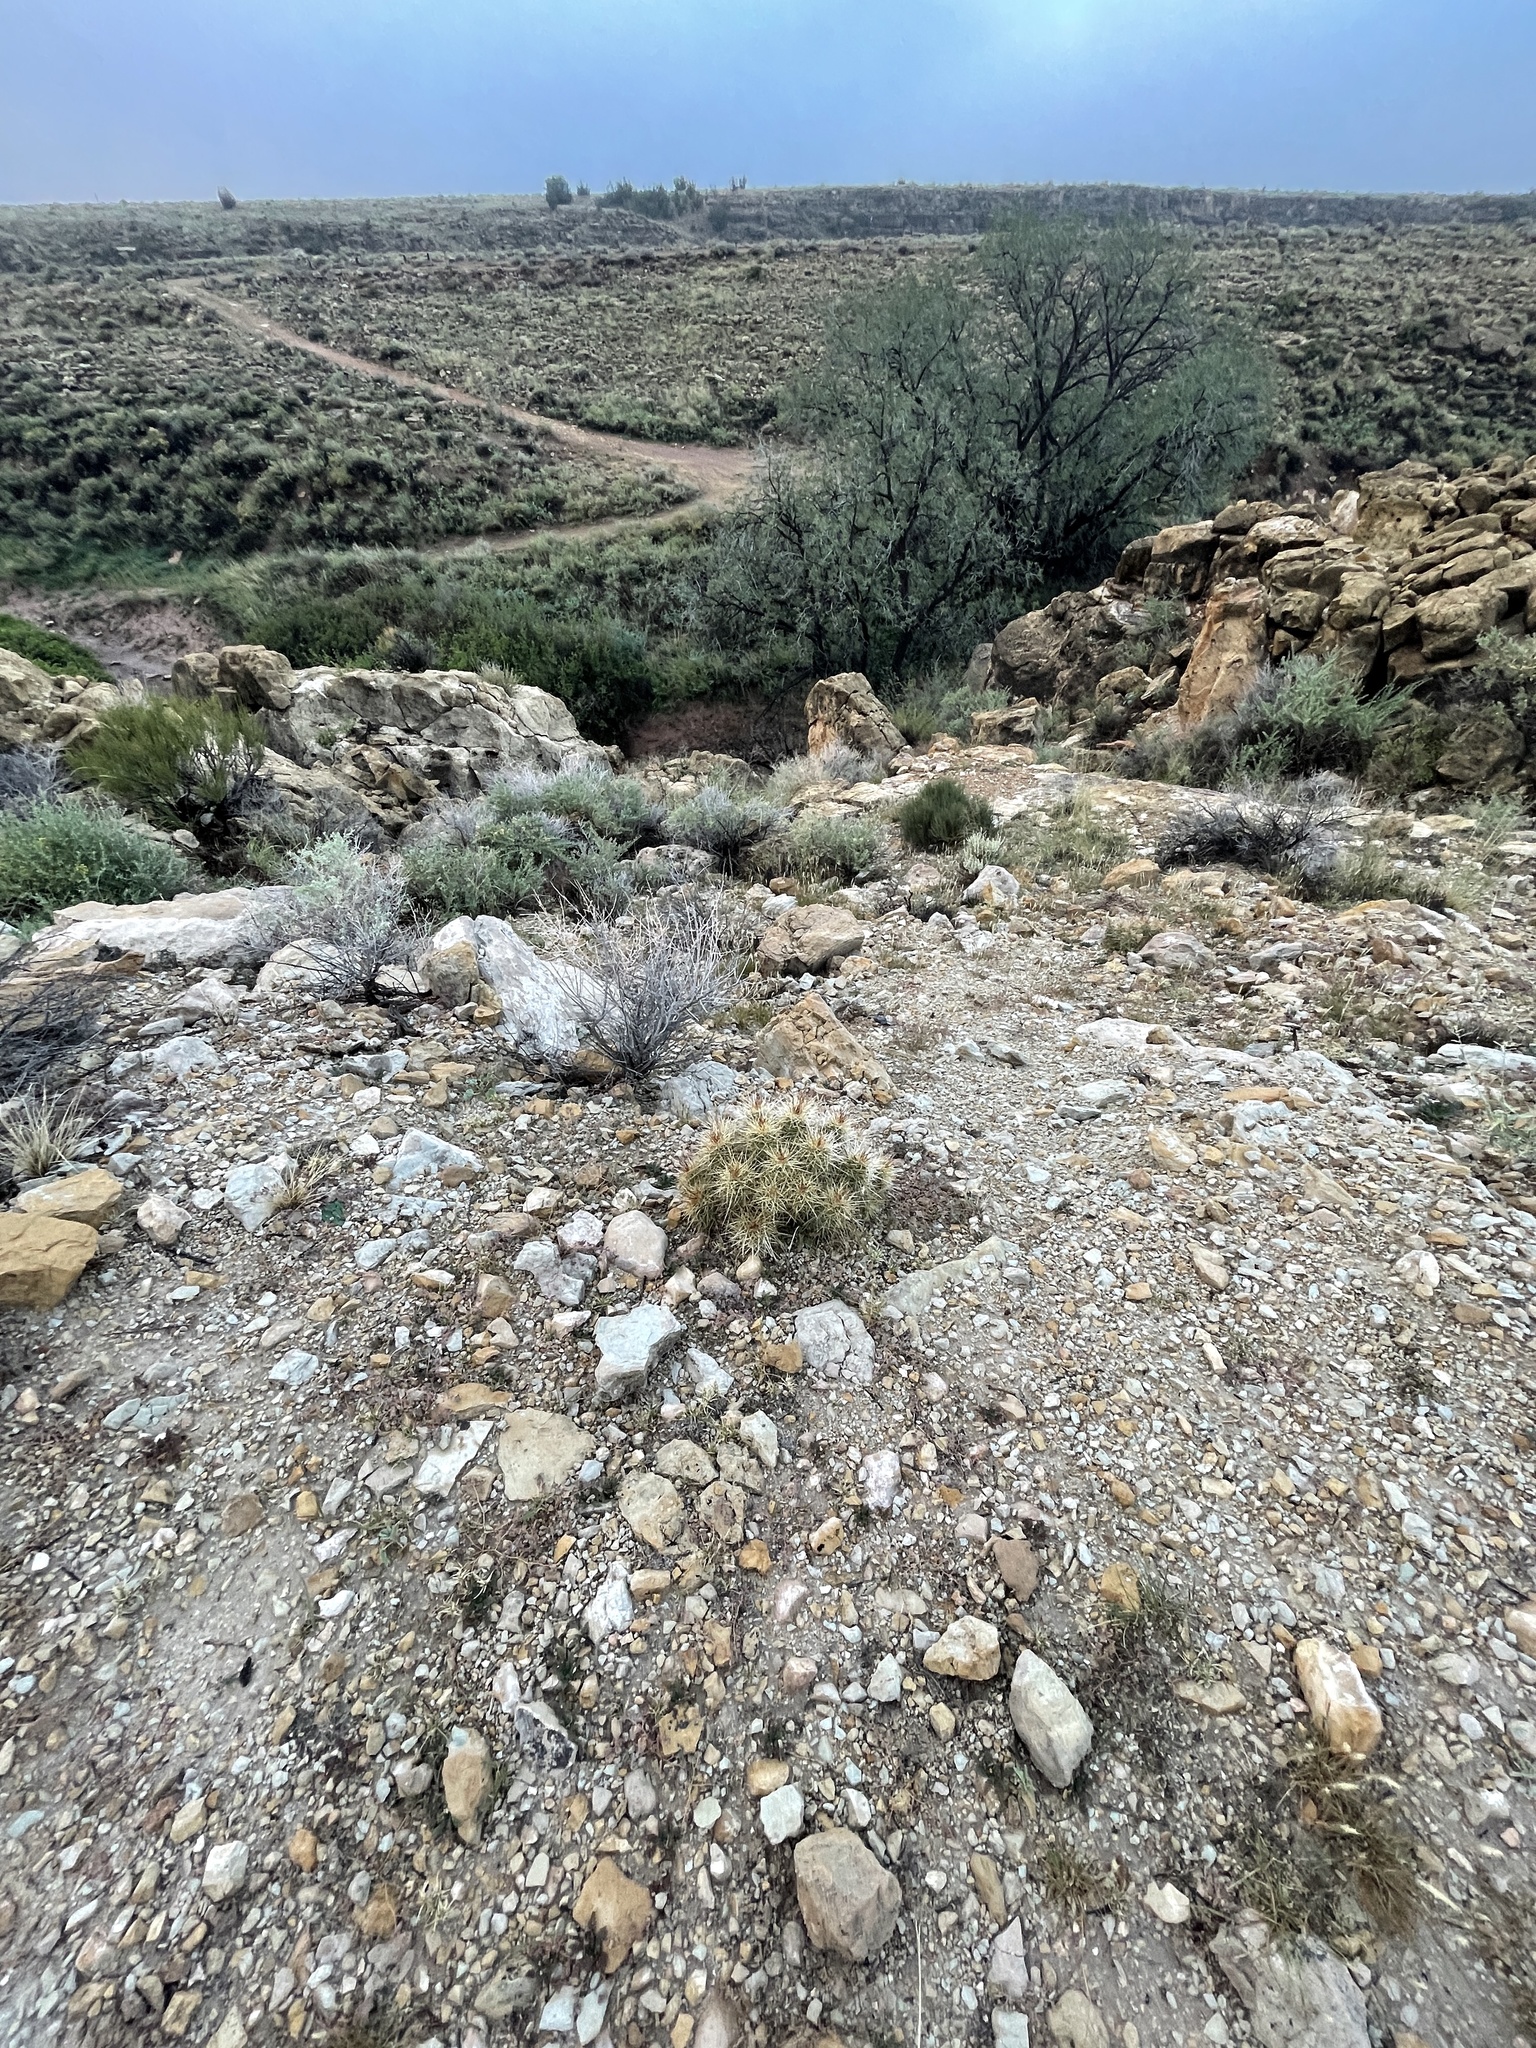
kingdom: Plantae
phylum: Tracheophyta
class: Magnoliopsida
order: Caryophyllales
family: Cactaceae
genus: Echinocereus
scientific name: Echinocereus triglochidiatus
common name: Claretcup hedgehog
